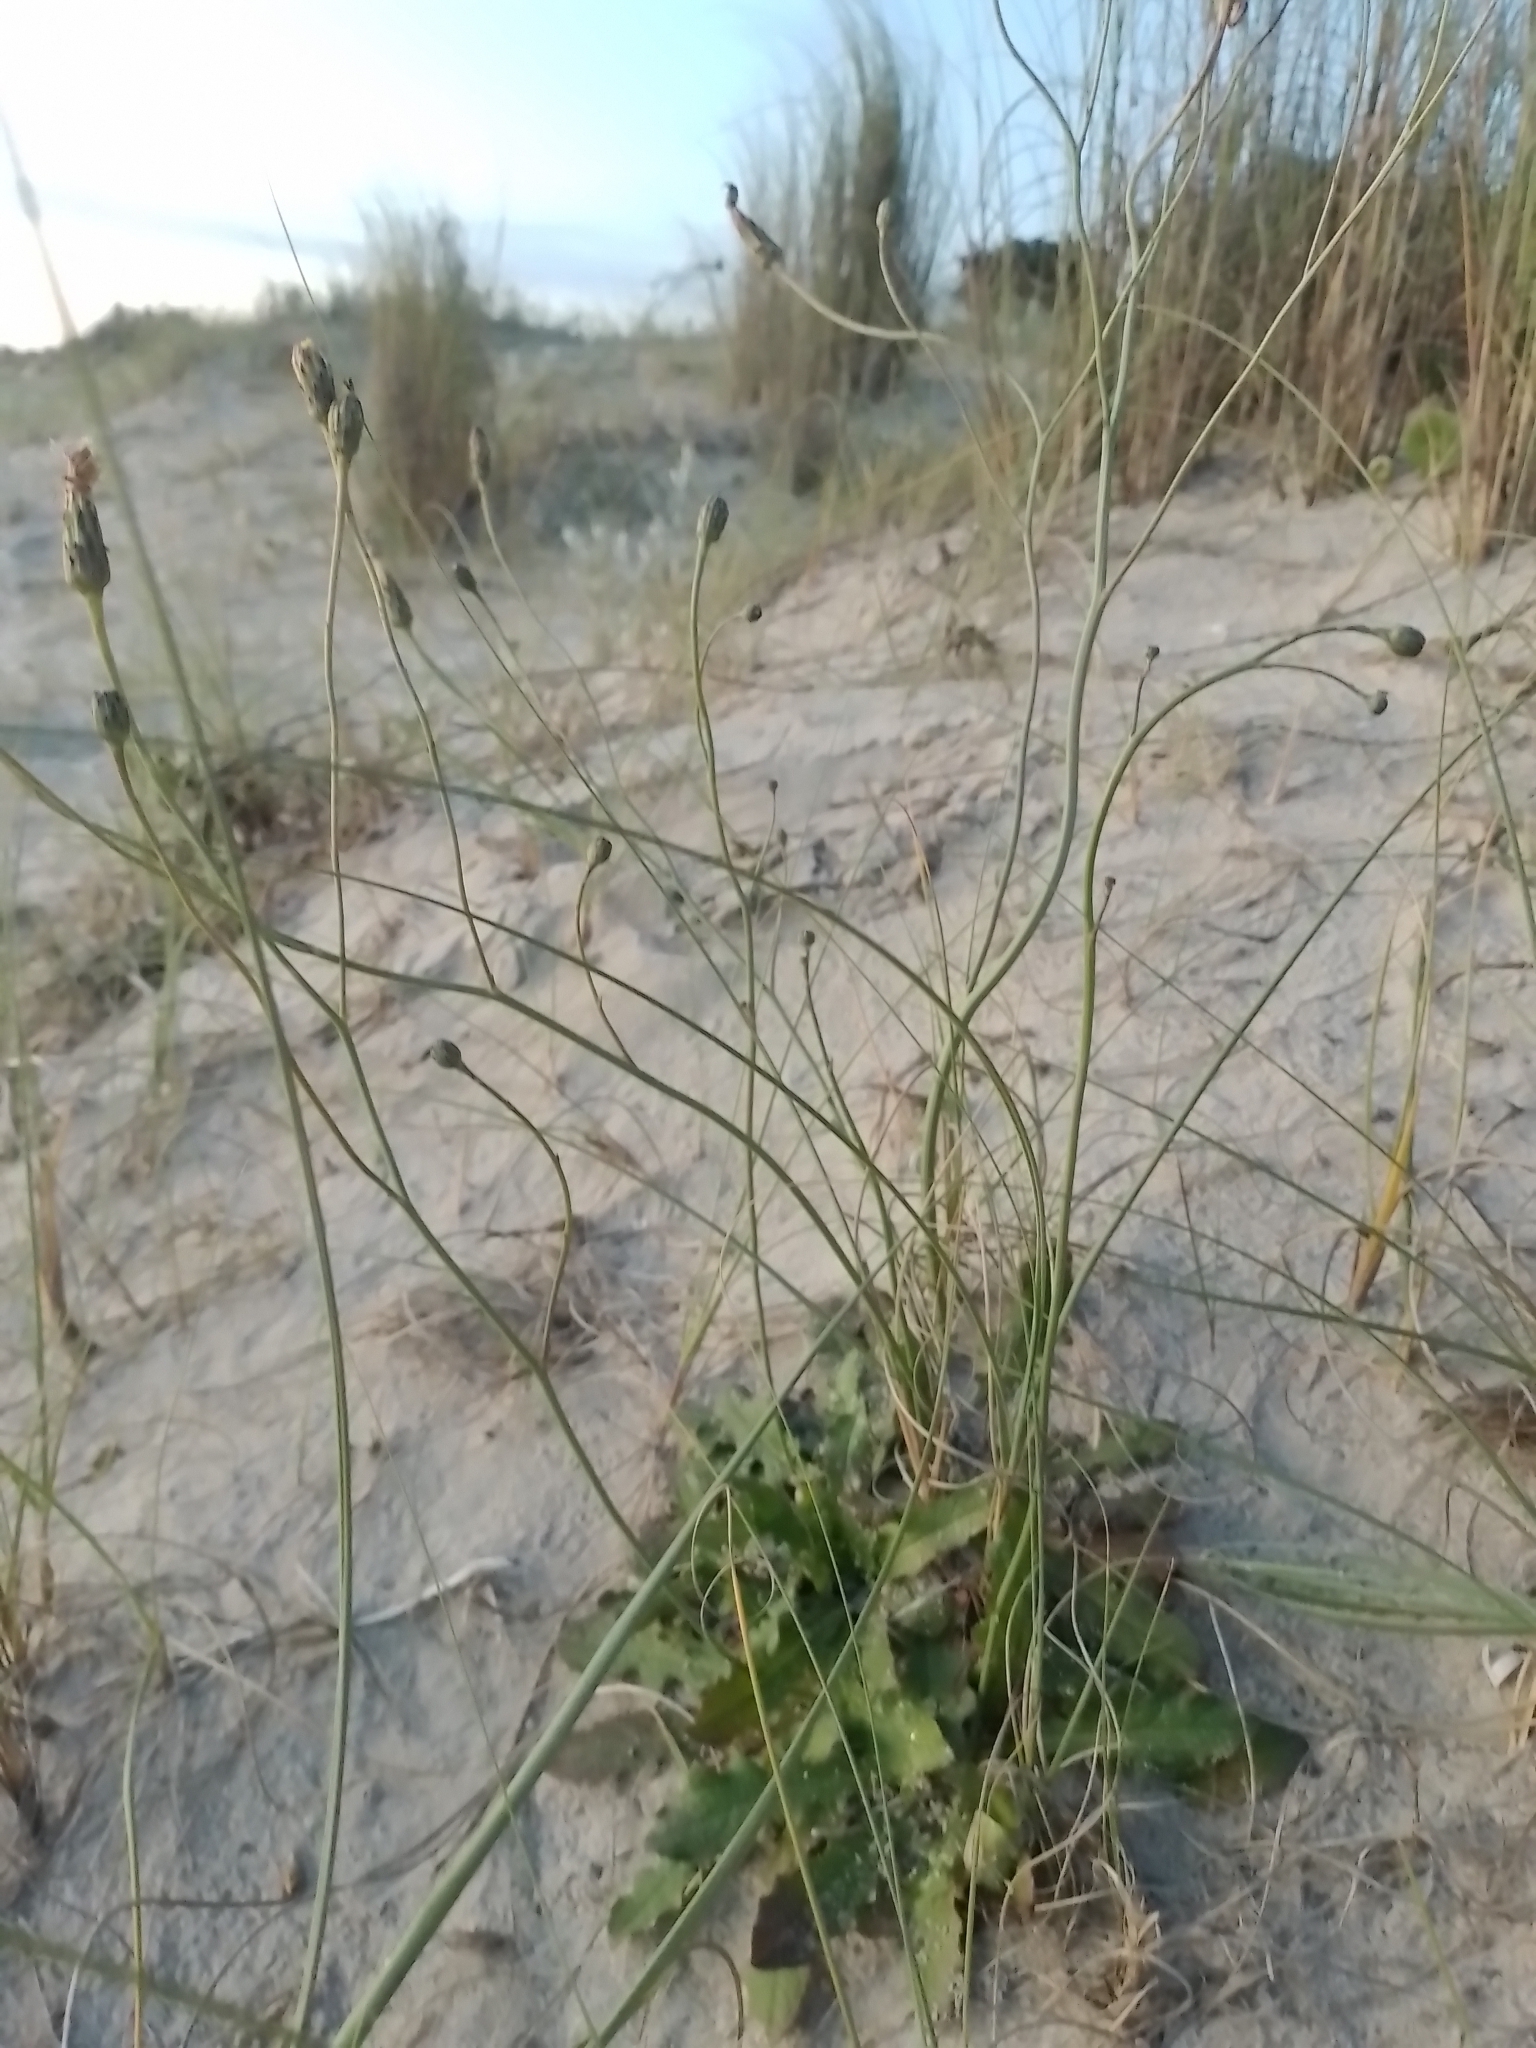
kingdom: Plantae
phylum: Tracheophyta
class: Magnoliopsida
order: Asterales
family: Asteraceae
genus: Hypochaeris
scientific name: Hypochaeris radicata
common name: Flatweed
